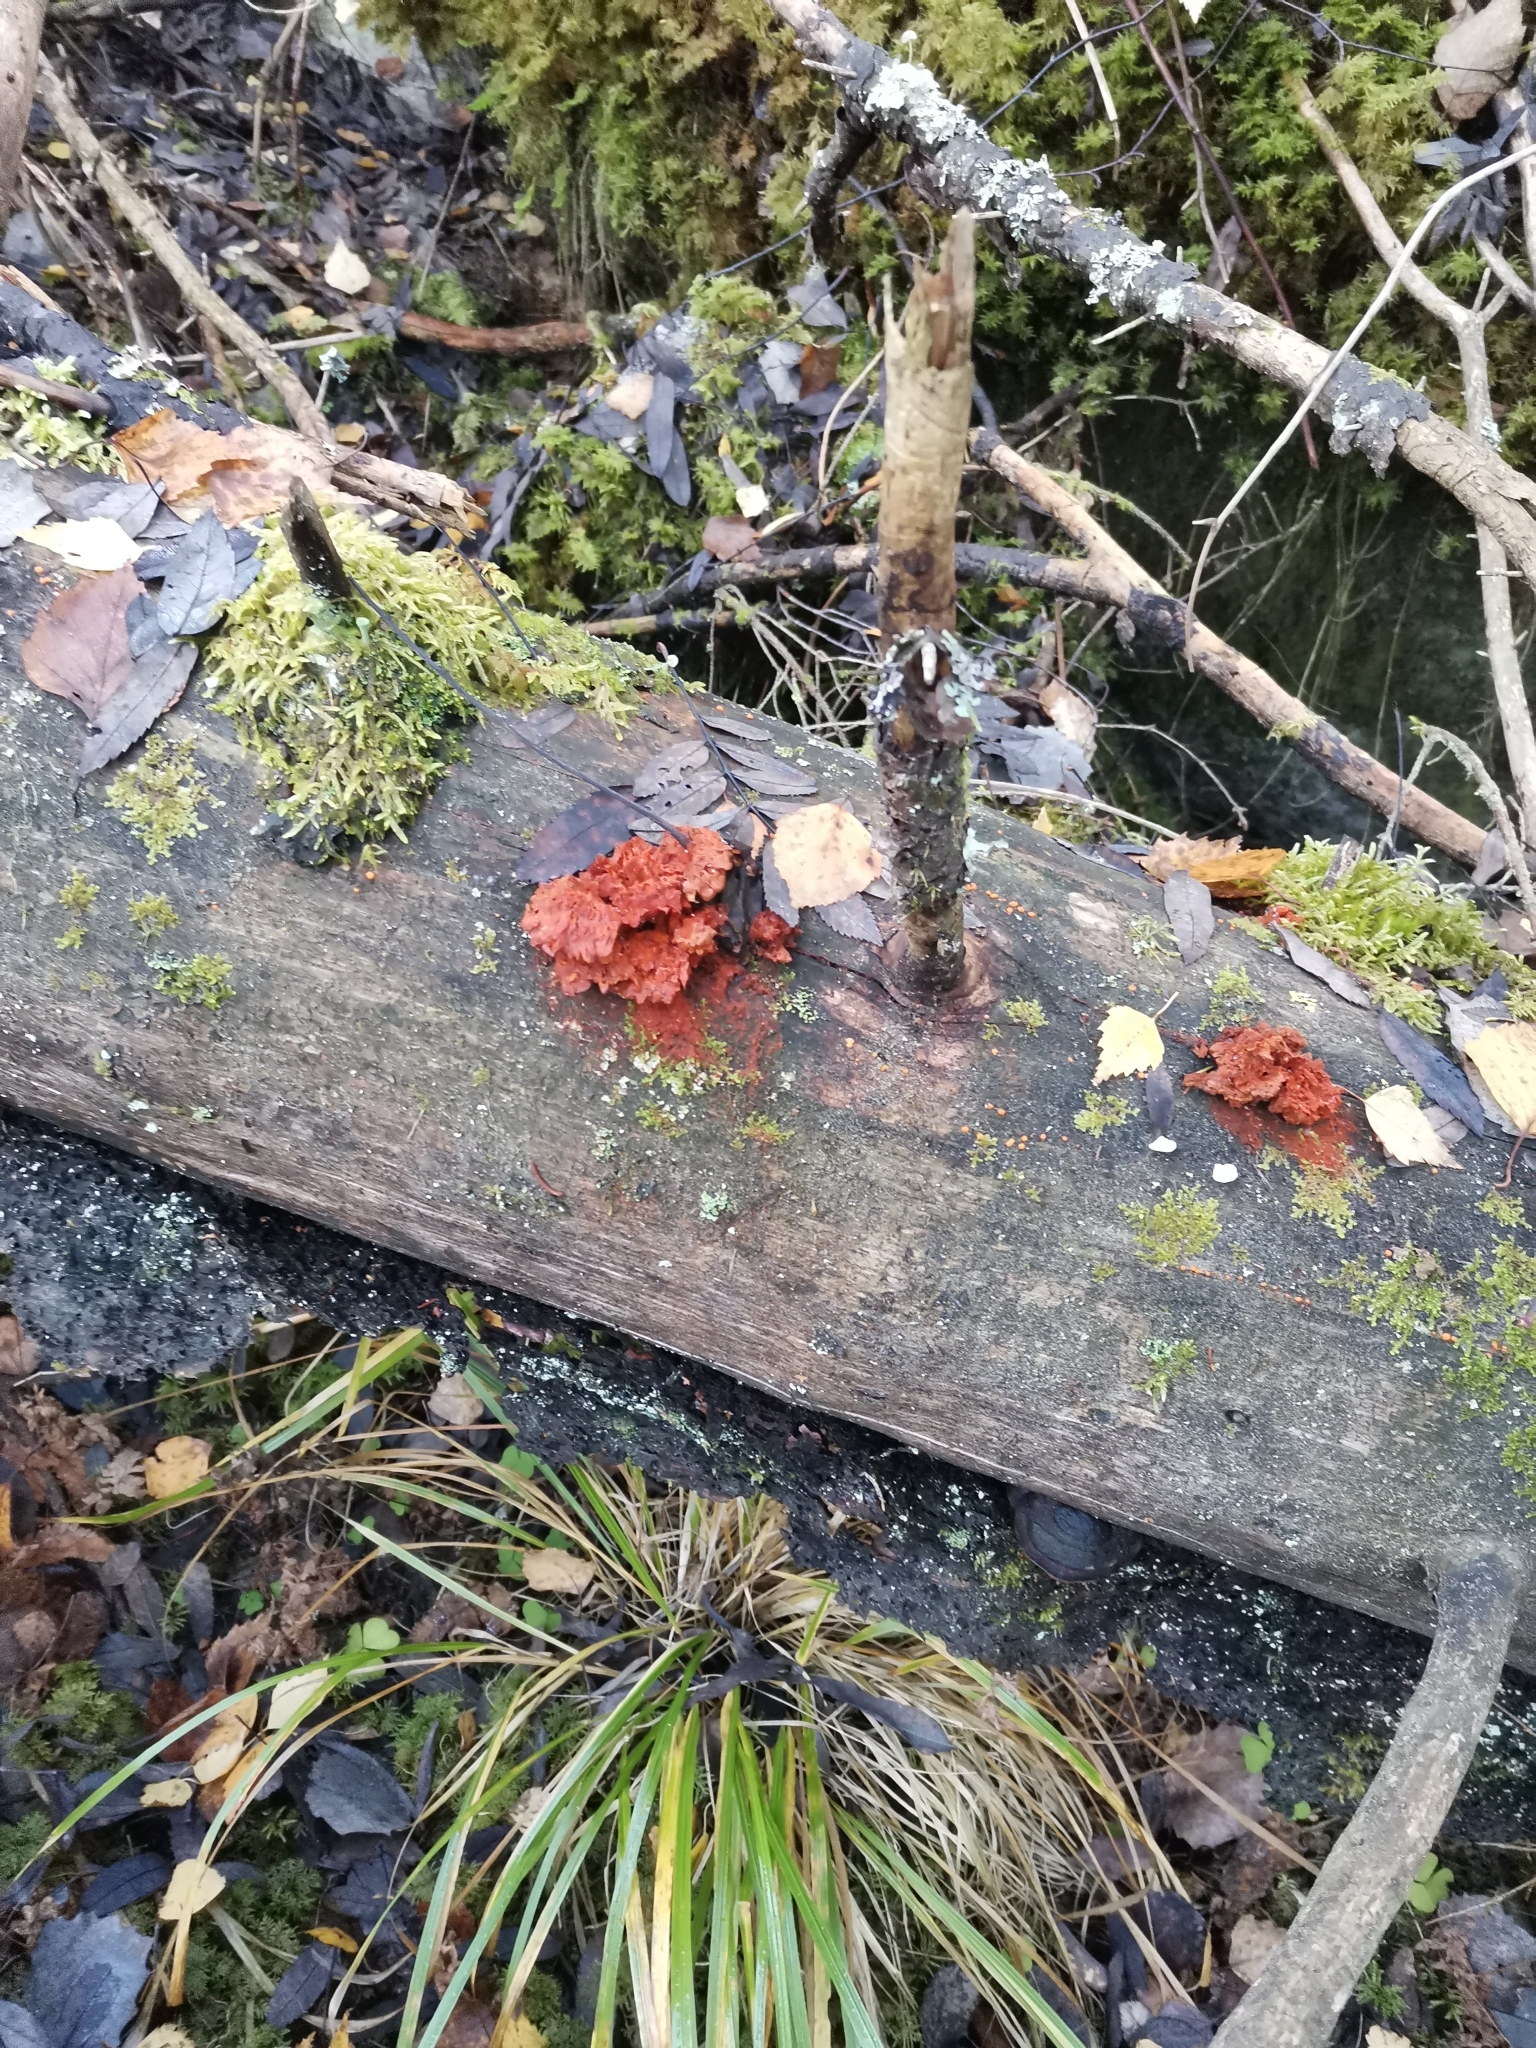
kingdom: Fungi
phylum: Basidiomycota
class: Agaricomycetes
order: Polyporales
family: Pycnoporellaceae
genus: Pycnoporellus
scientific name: Pycnoporellus fulgens
